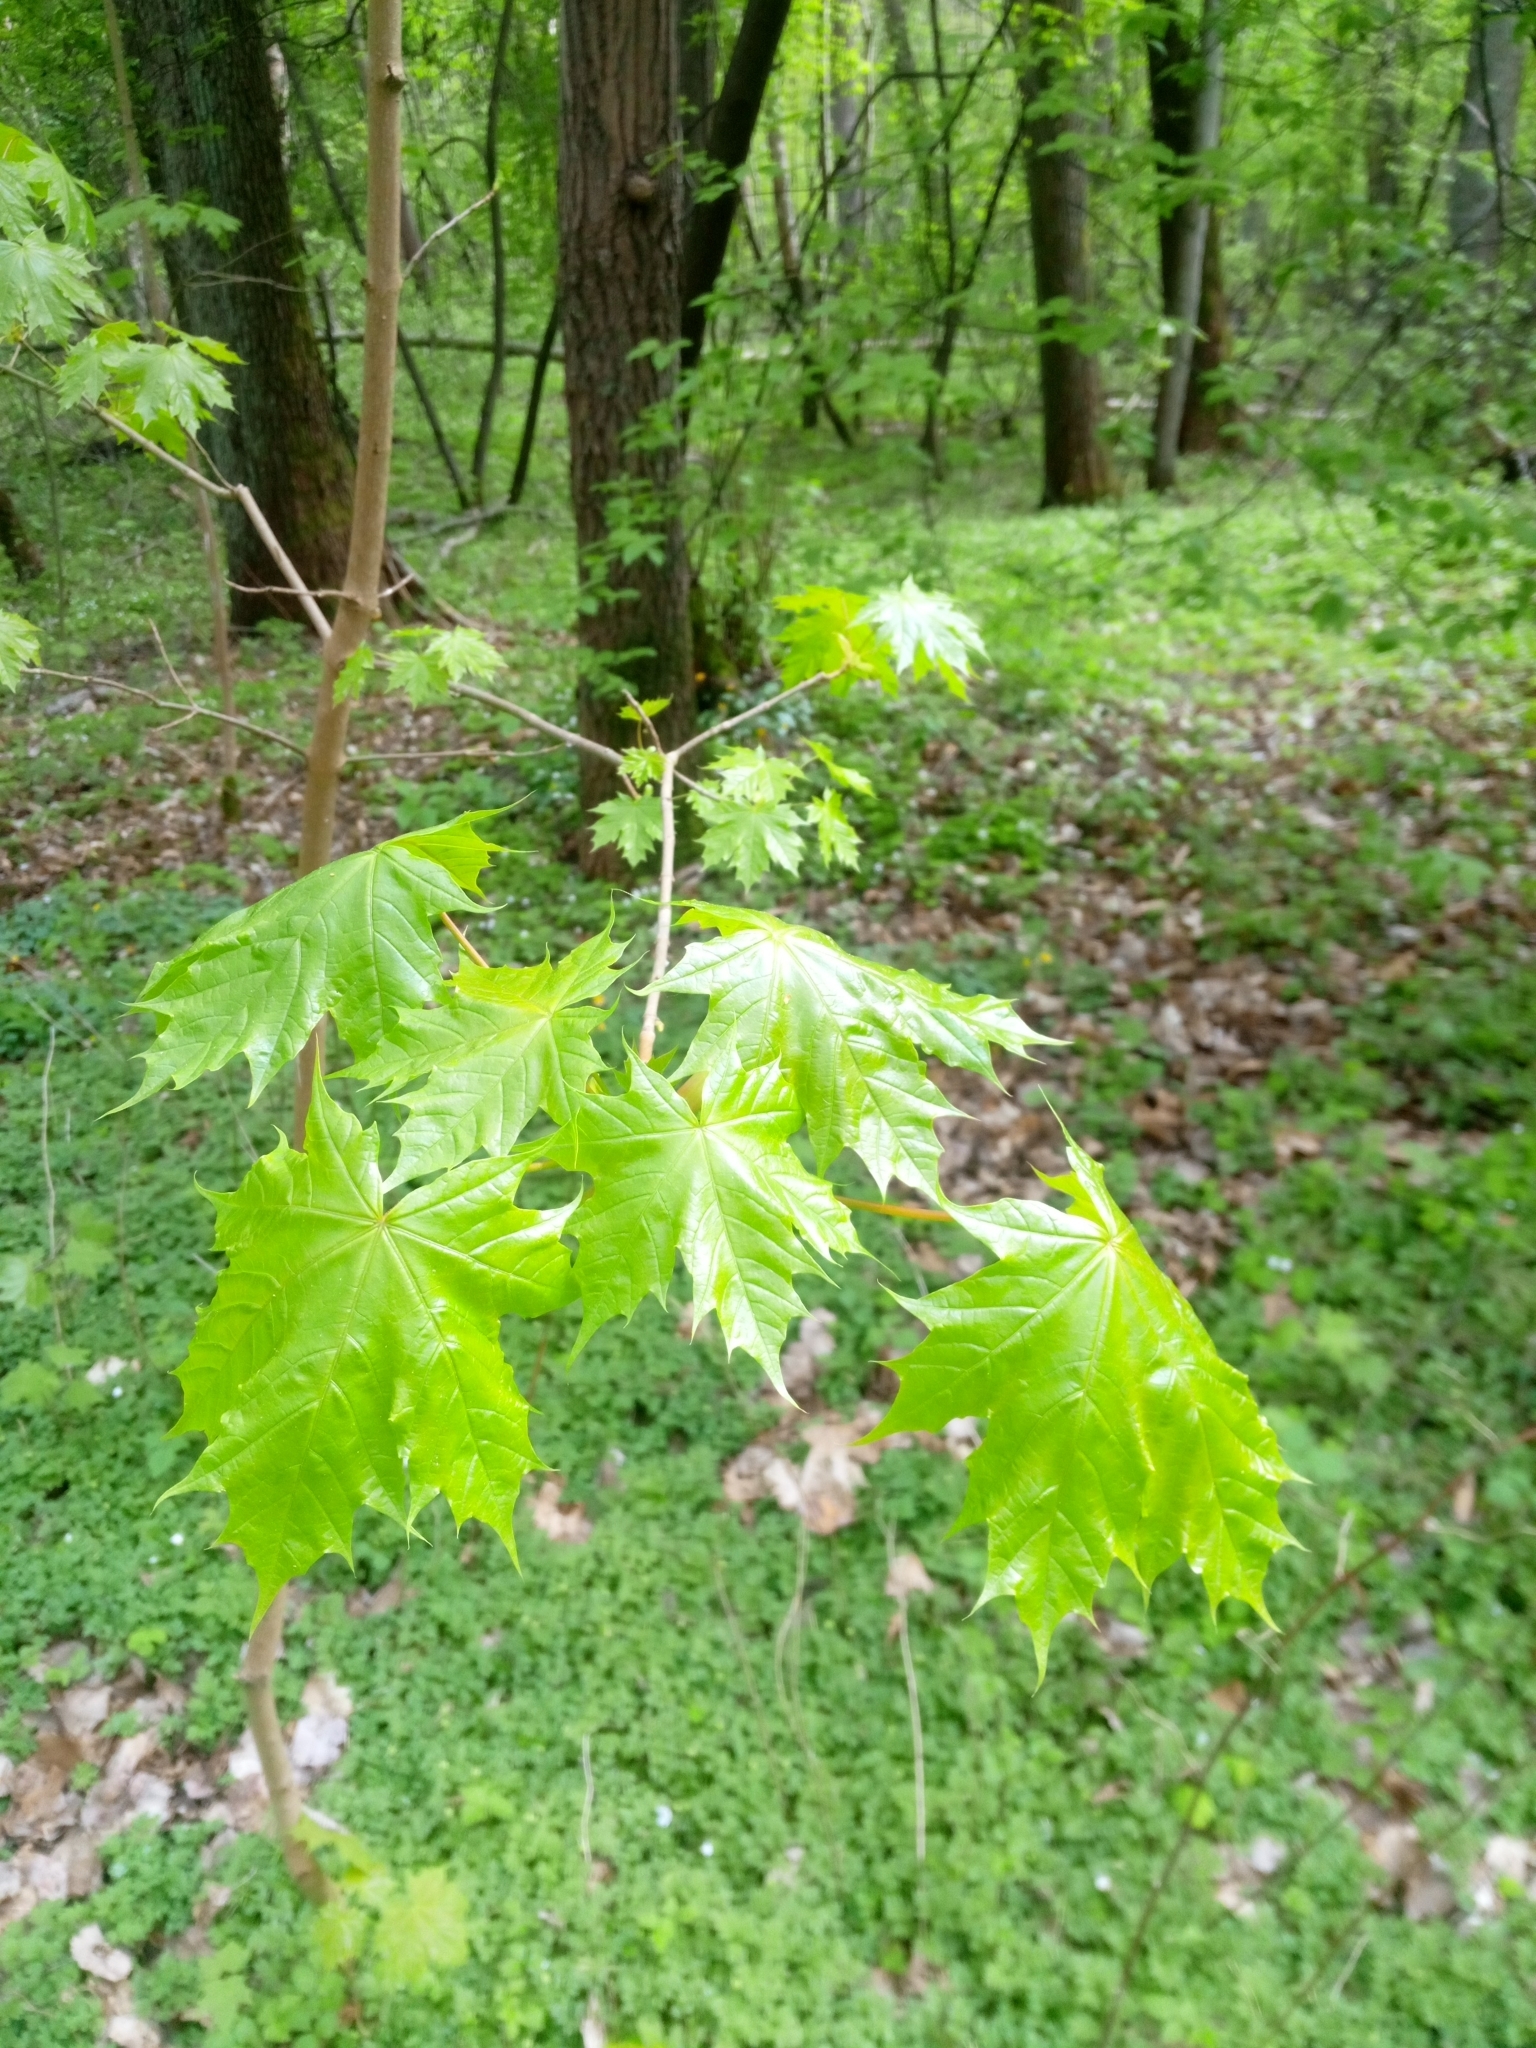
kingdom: Plantae
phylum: Tracheophyta
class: Magnoliopsida
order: Sapindales
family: Sapindaceae
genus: Acer
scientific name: Acer platanoides
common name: Norway maple
